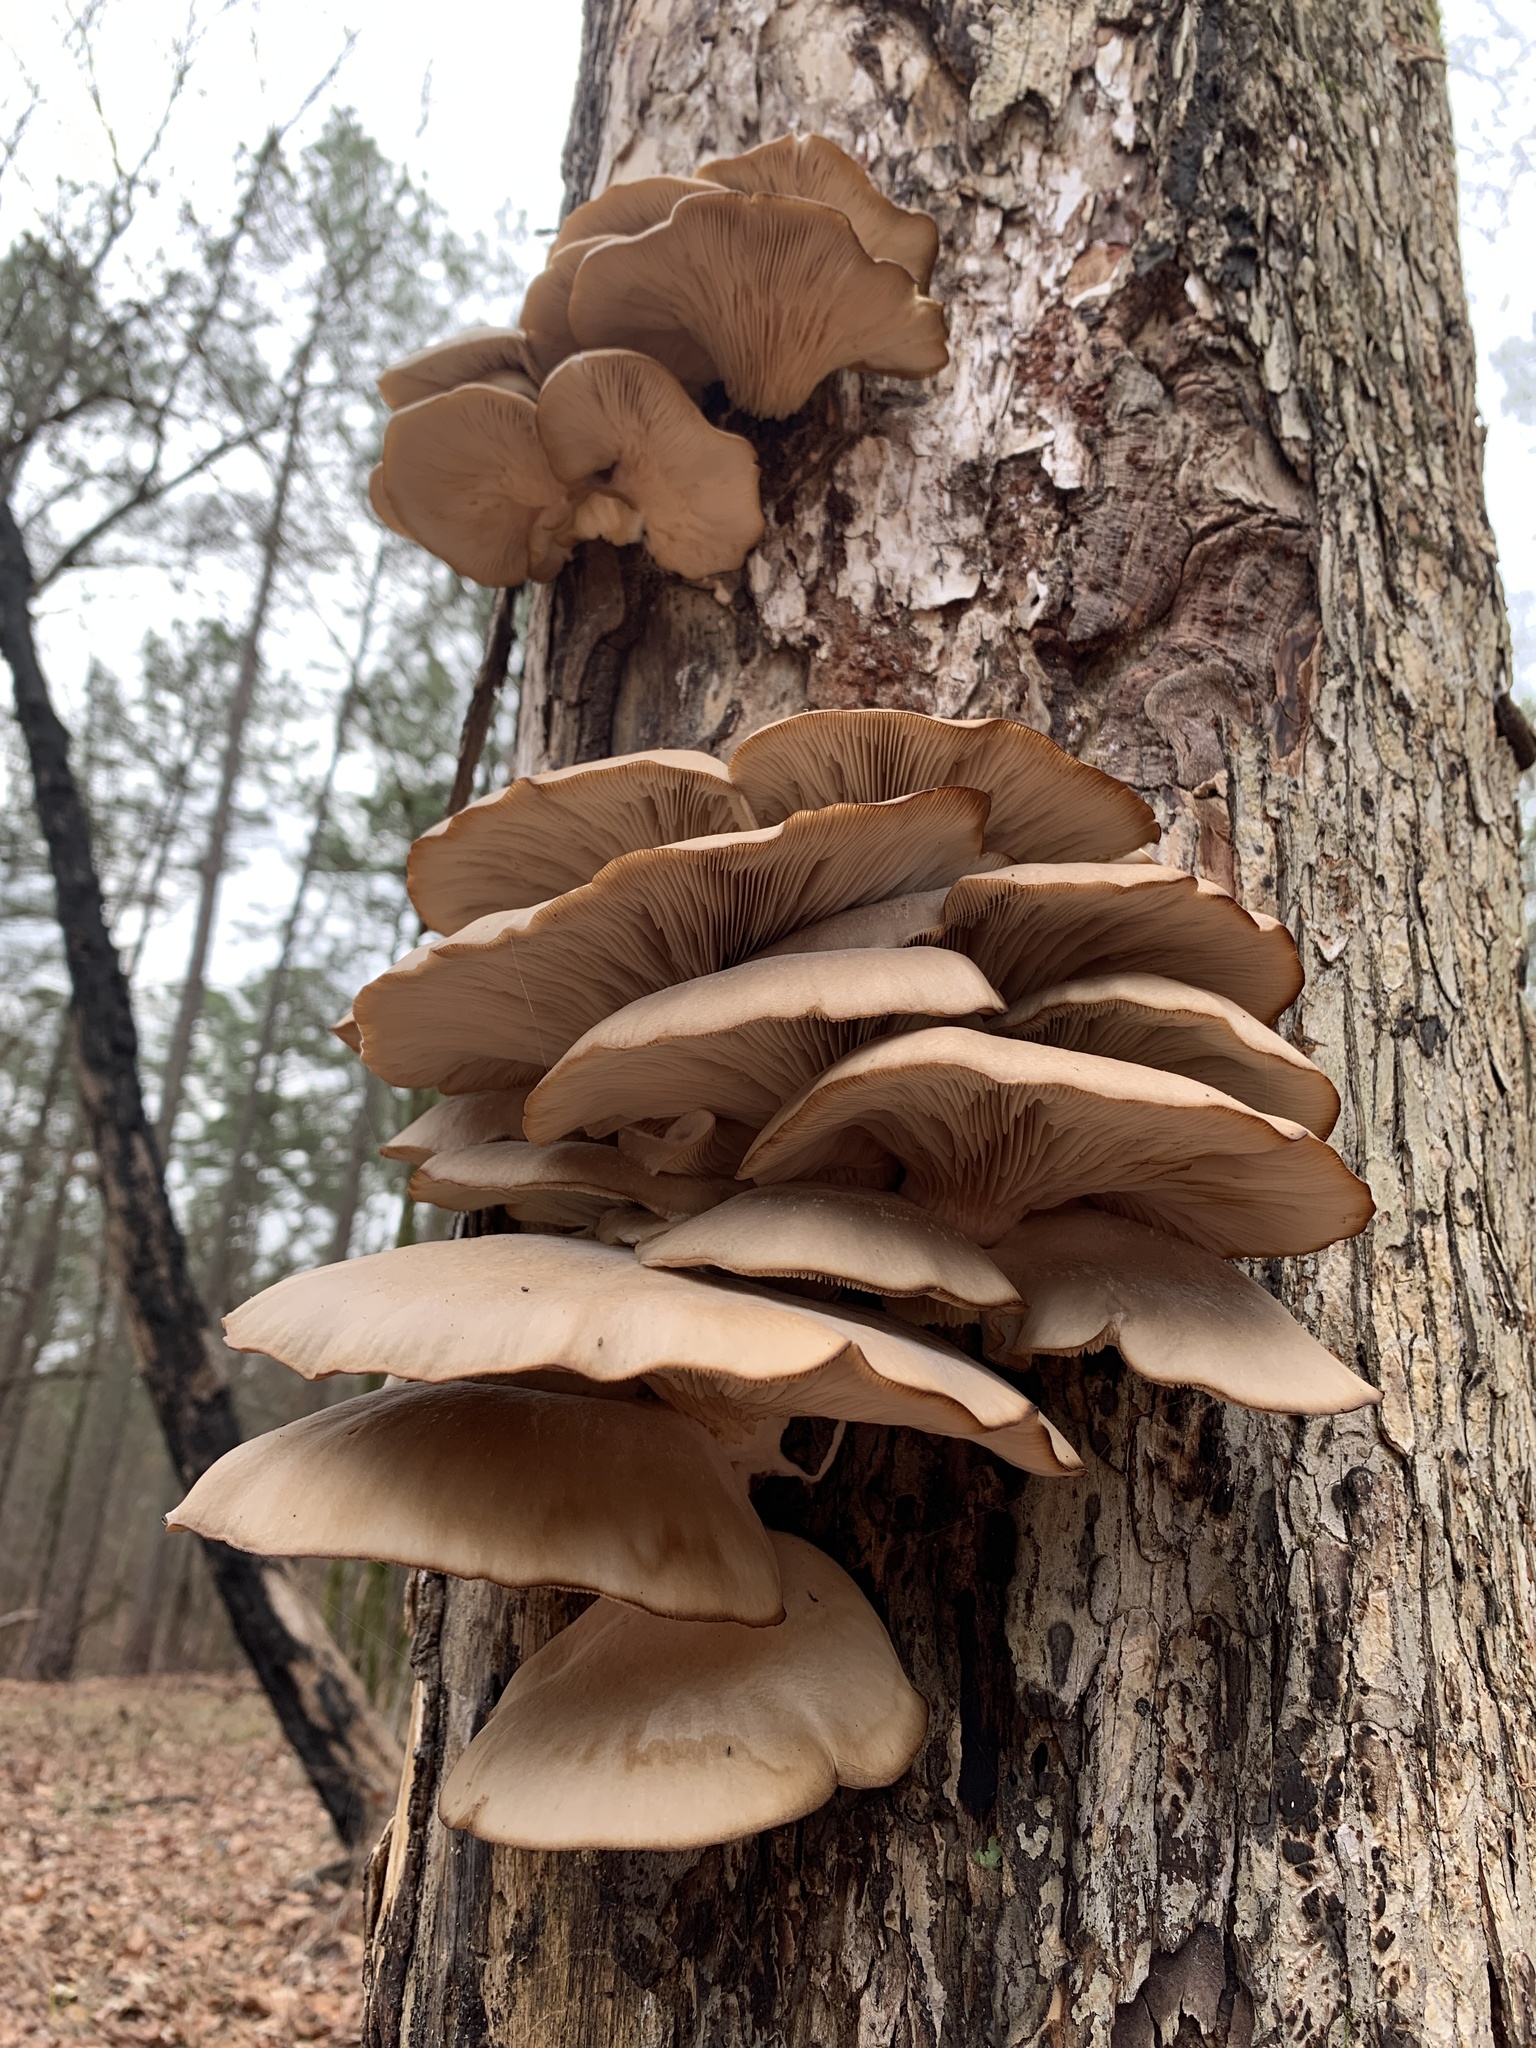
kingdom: Fungi
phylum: Basidiomycota
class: Agaricomycetes
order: Agaricales
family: Pleurotaceae
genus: Pleurotus
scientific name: Pleurotus ostreatus
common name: Oyster mushroom
